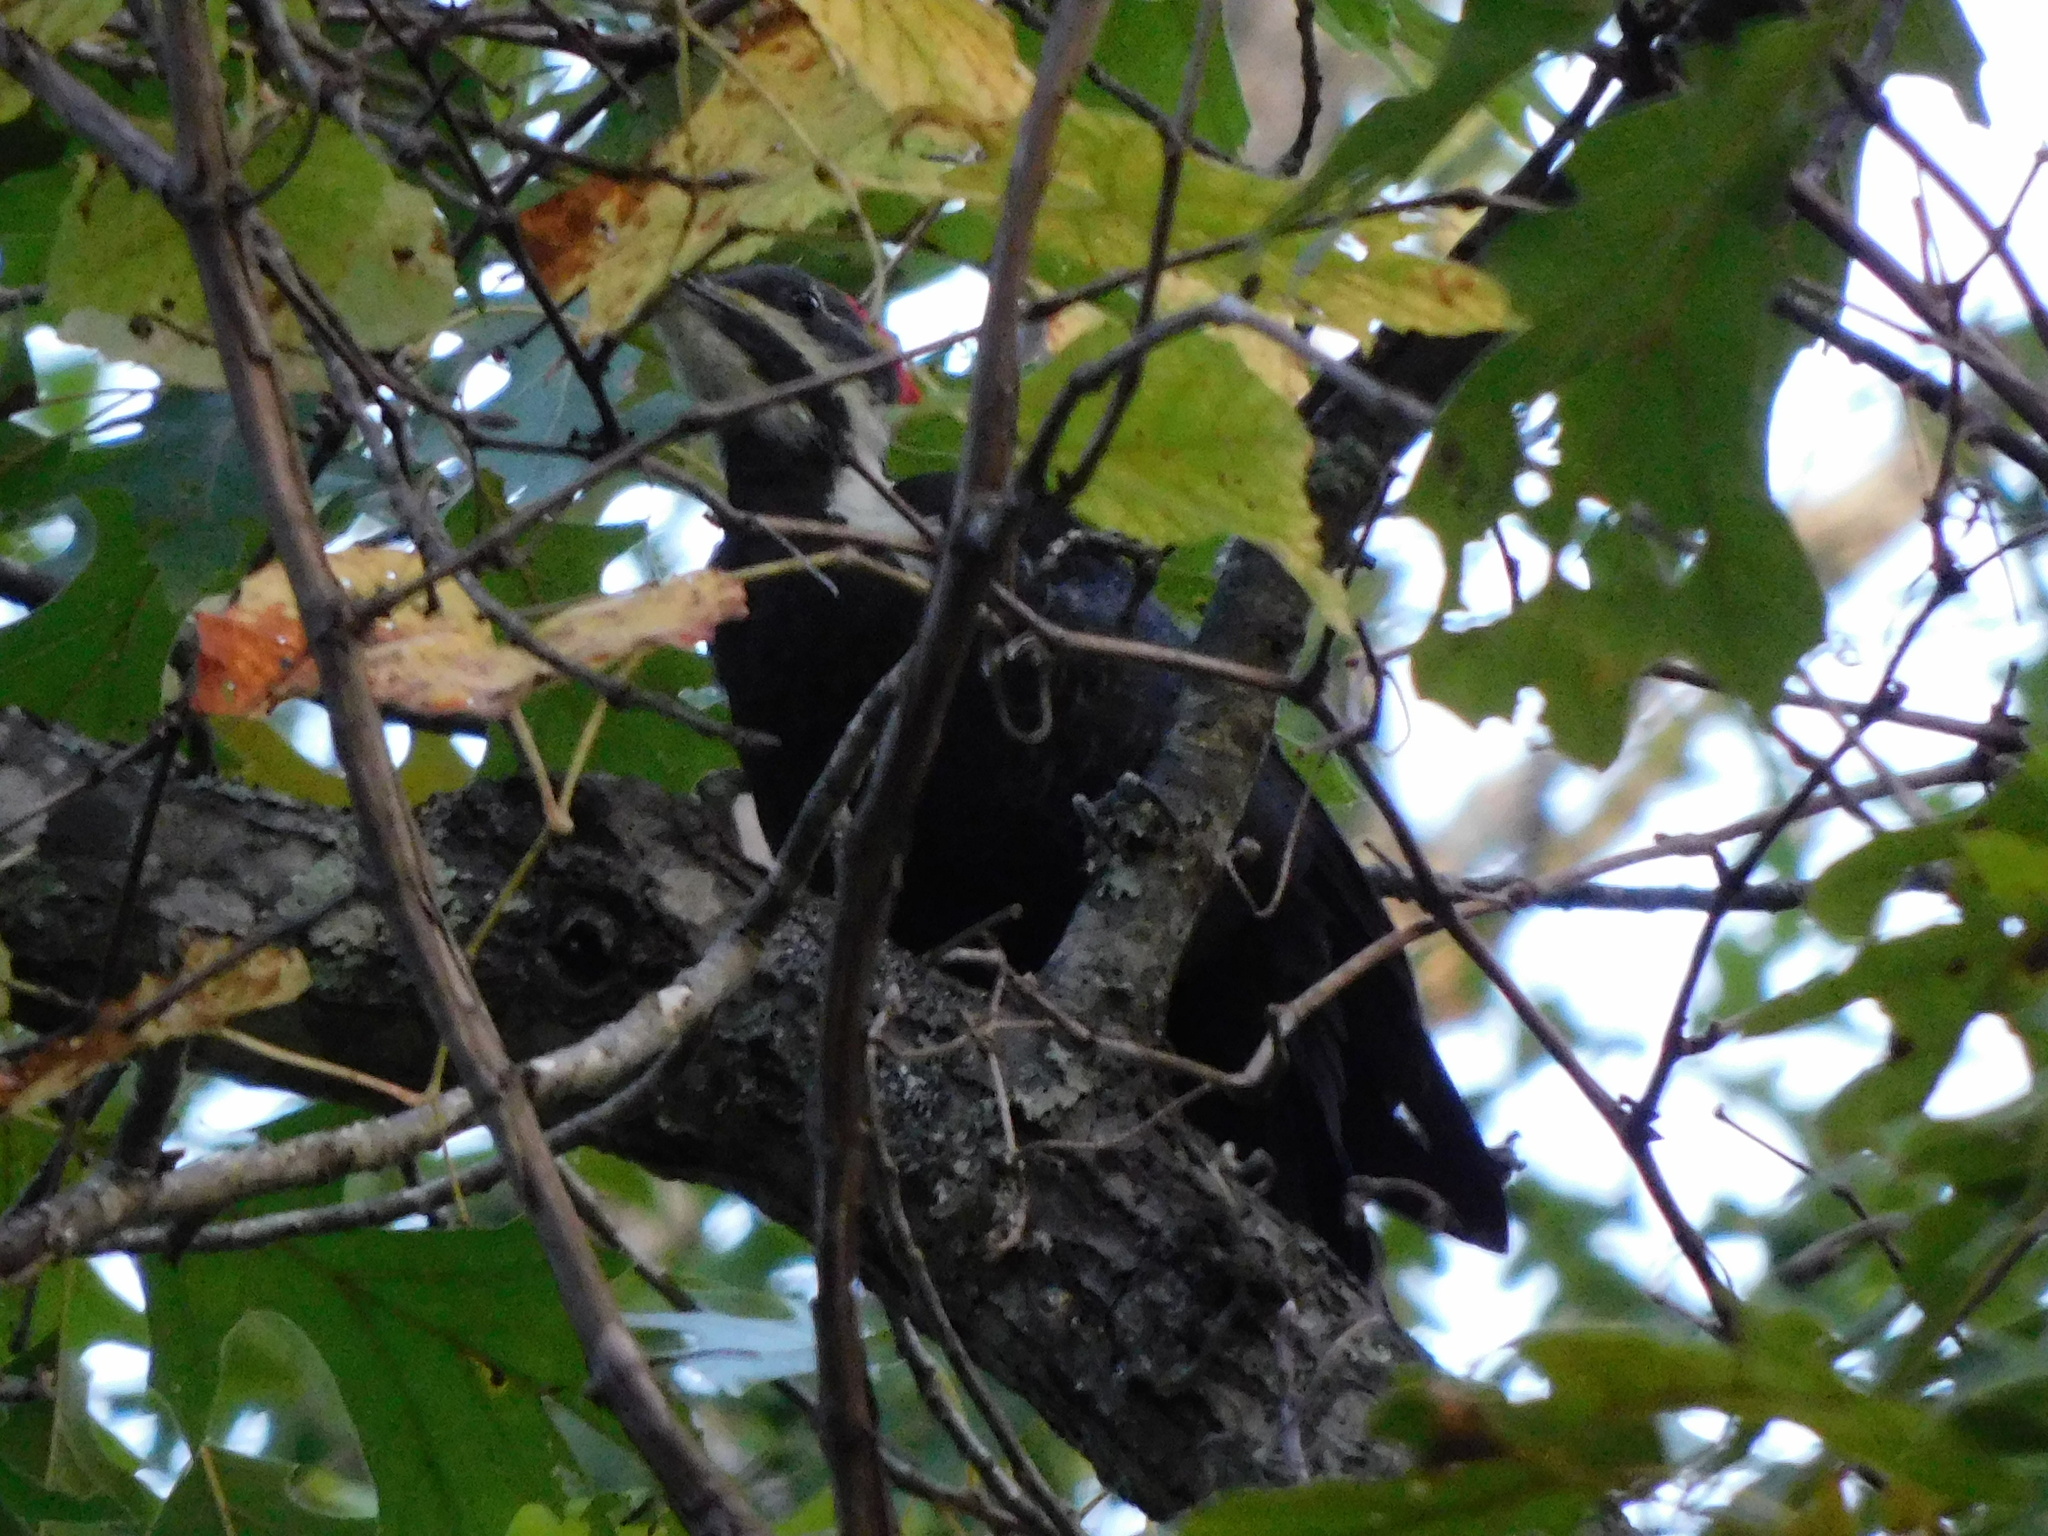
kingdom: Animalia
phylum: Chordata
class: Aves
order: Piciformes
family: Picidae
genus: Dryocopus
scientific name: Dryocopus pileatus
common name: Pileated woodpecker
